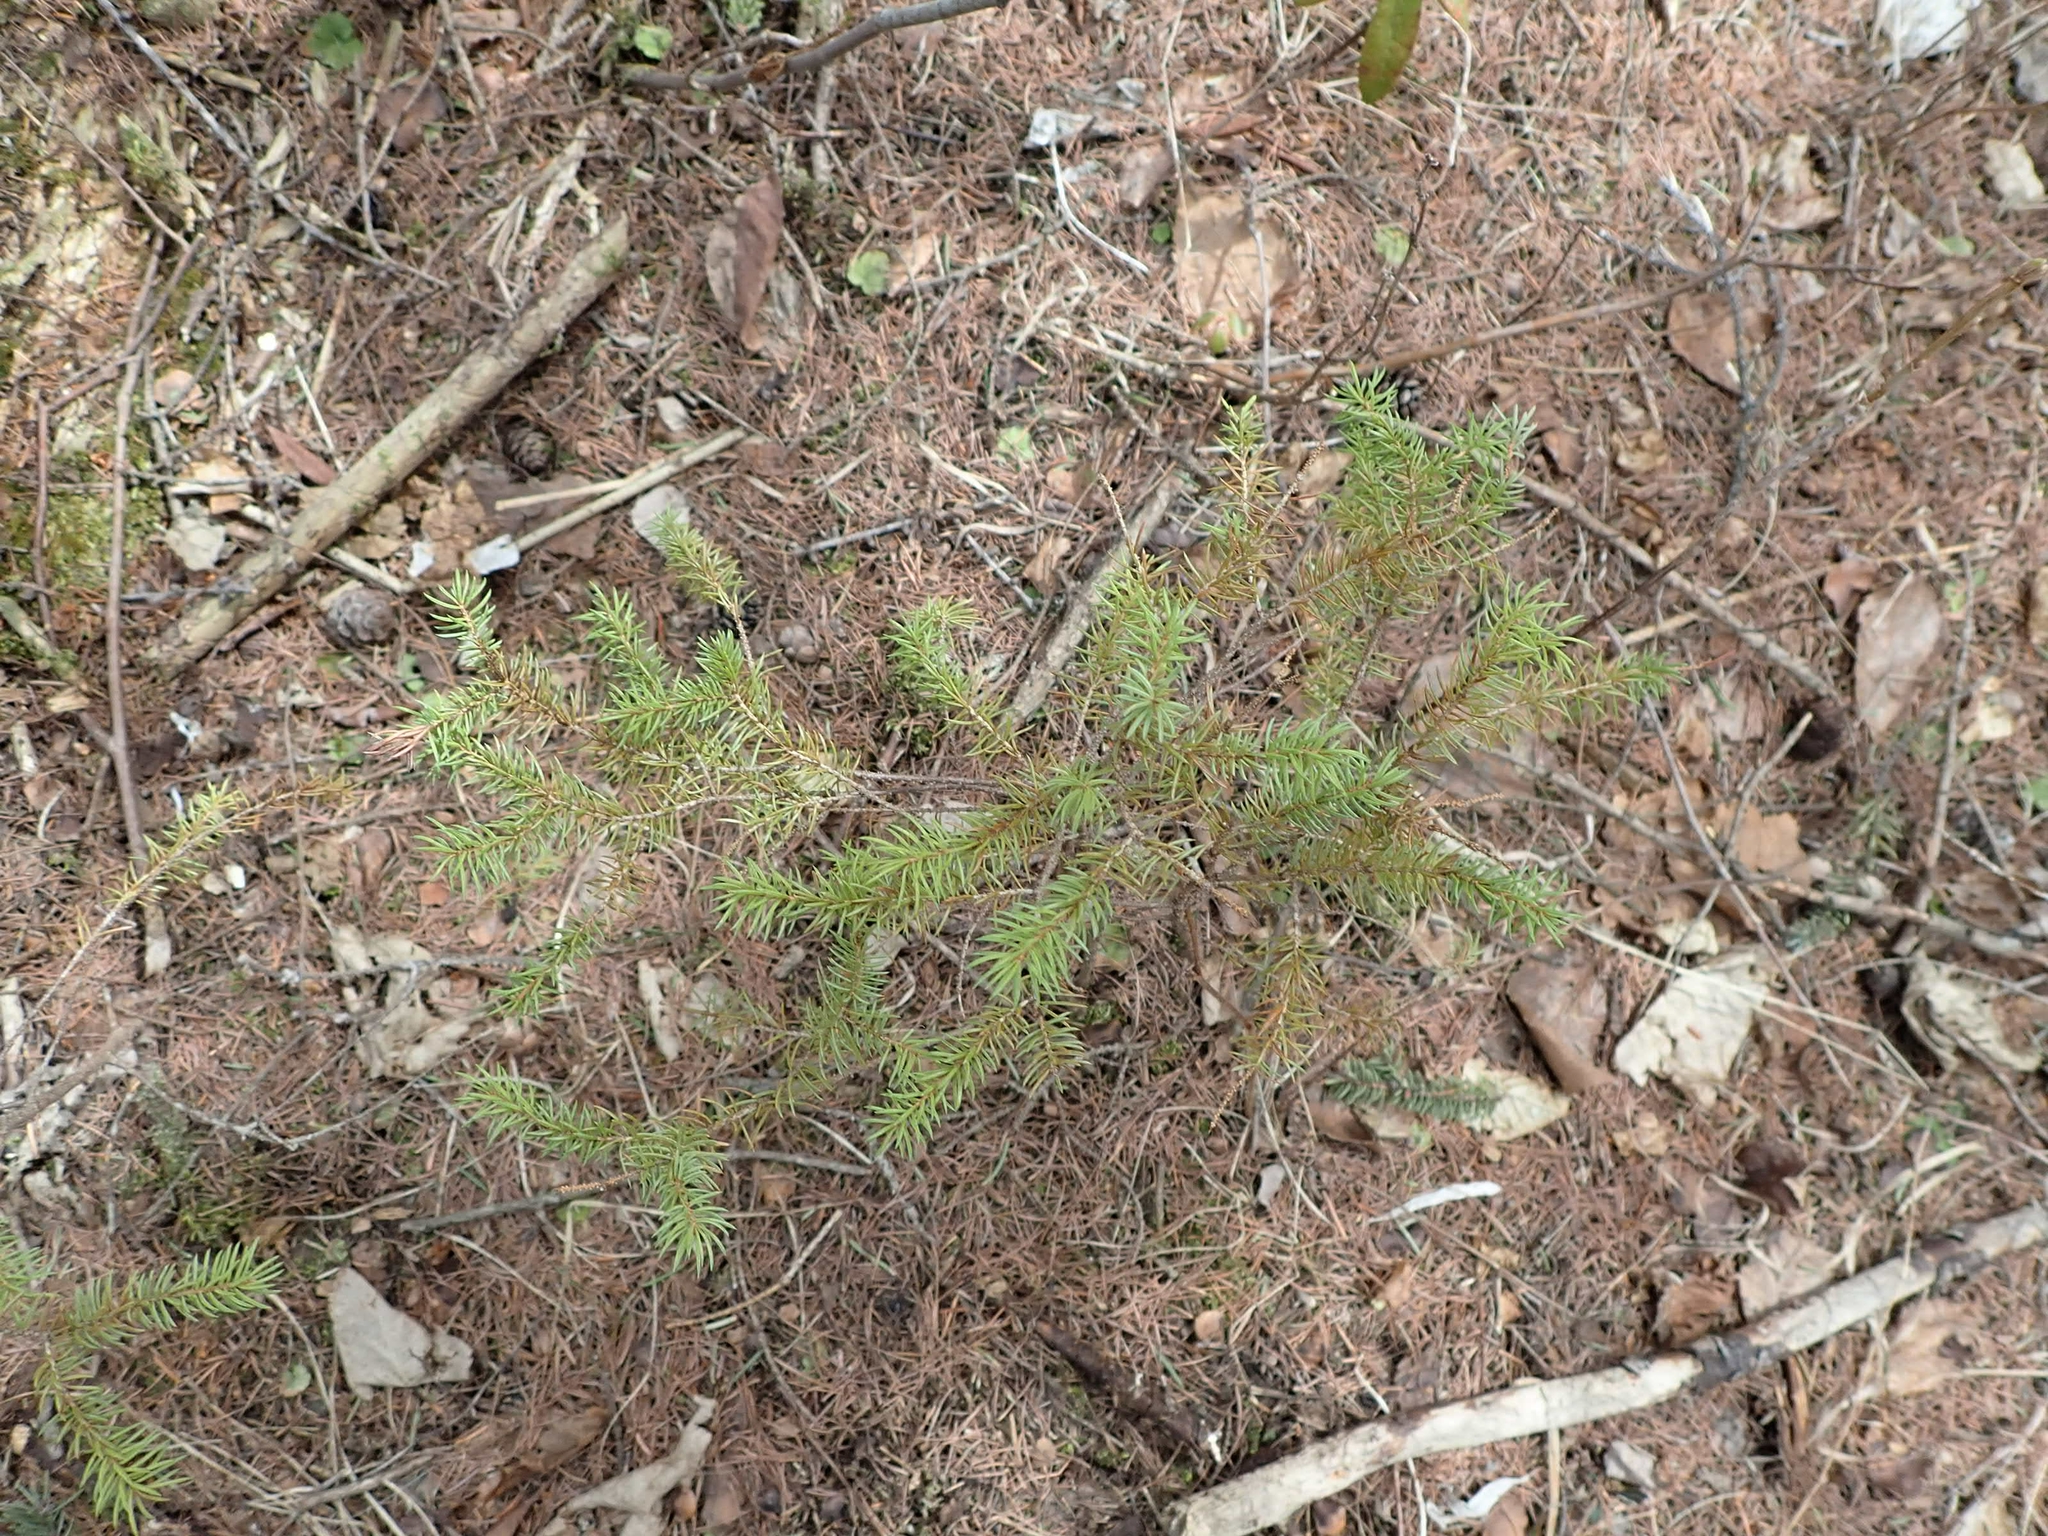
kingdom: Plantae
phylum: Tracheophyta
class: Pinopsida
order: Pinales
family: Pinaceae
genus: Picea
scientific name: Picea mariana
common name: Black spruce
